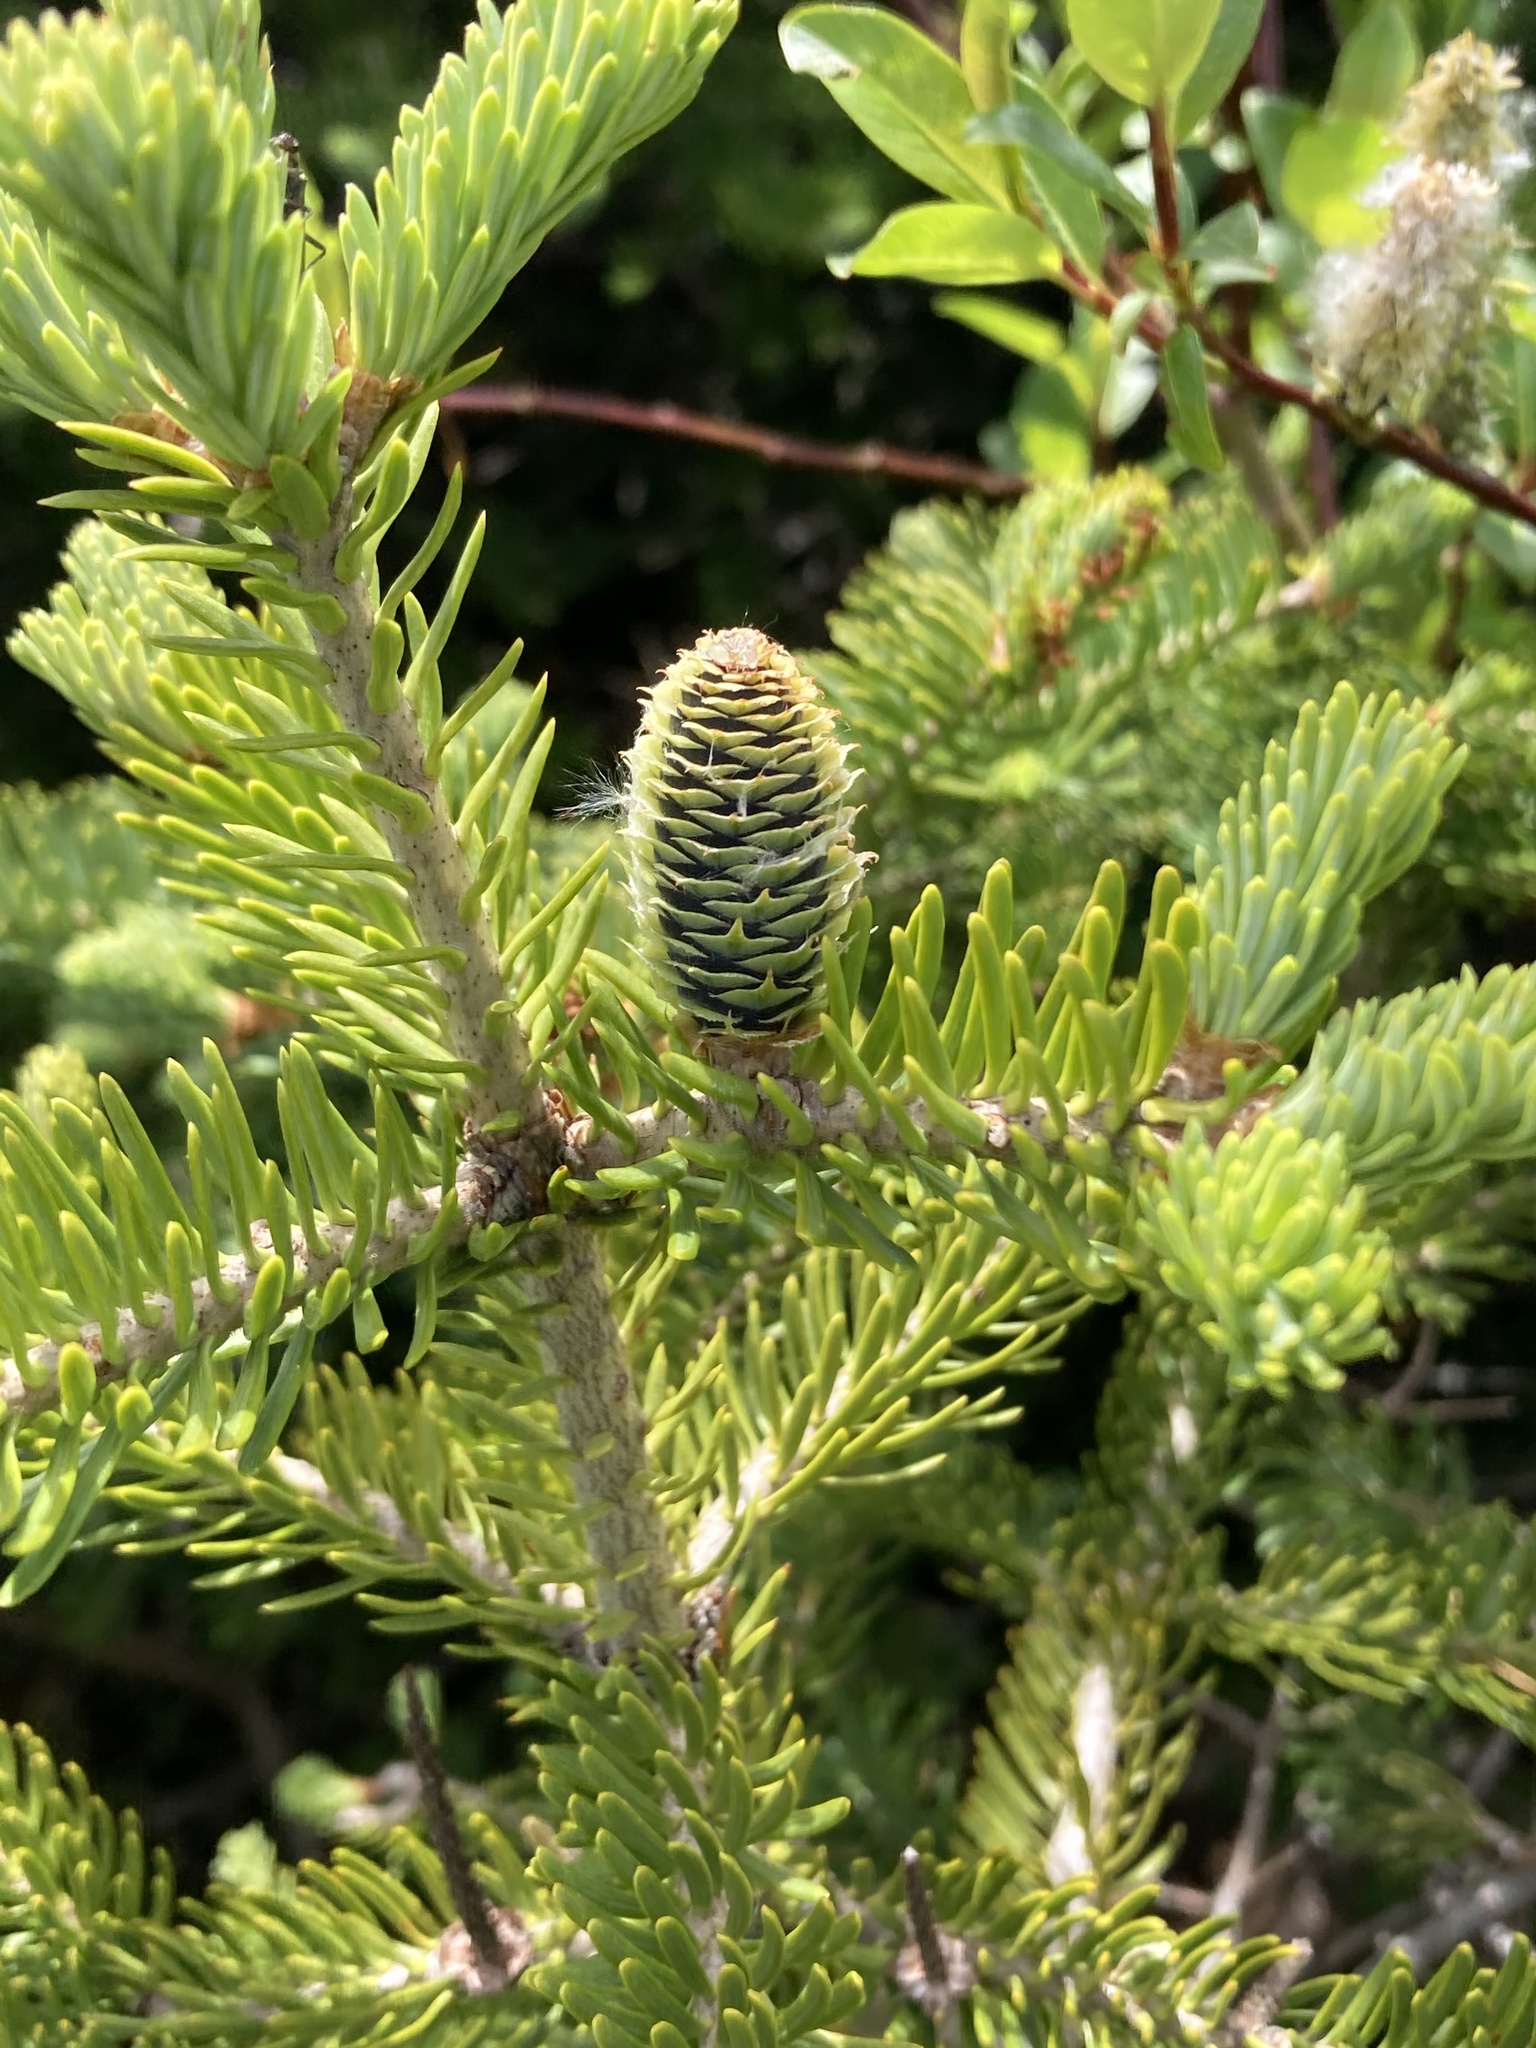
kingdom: Plantae
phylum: Tracheophyta
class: Pinopsida
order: Pinales
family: Pinaceae
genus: Abies
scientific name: Abies balsamea
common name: Balsam fir
